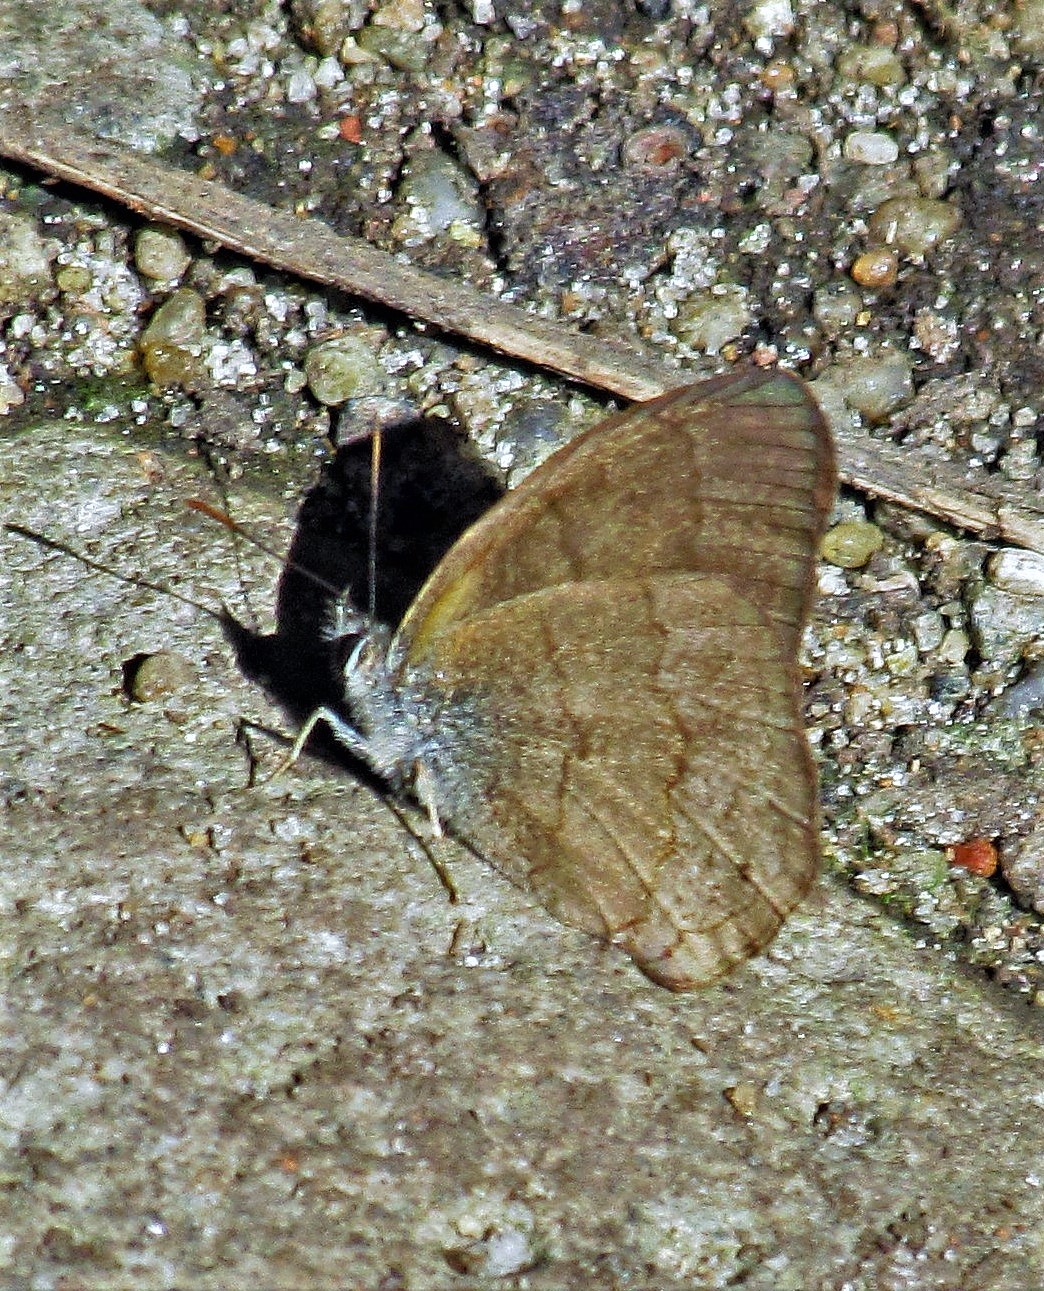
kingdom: Animalia
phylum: Arthropoda
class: Insecta
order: Lepidoptera
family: Nymphalidae
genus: Euptychia
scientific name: Euptychia
